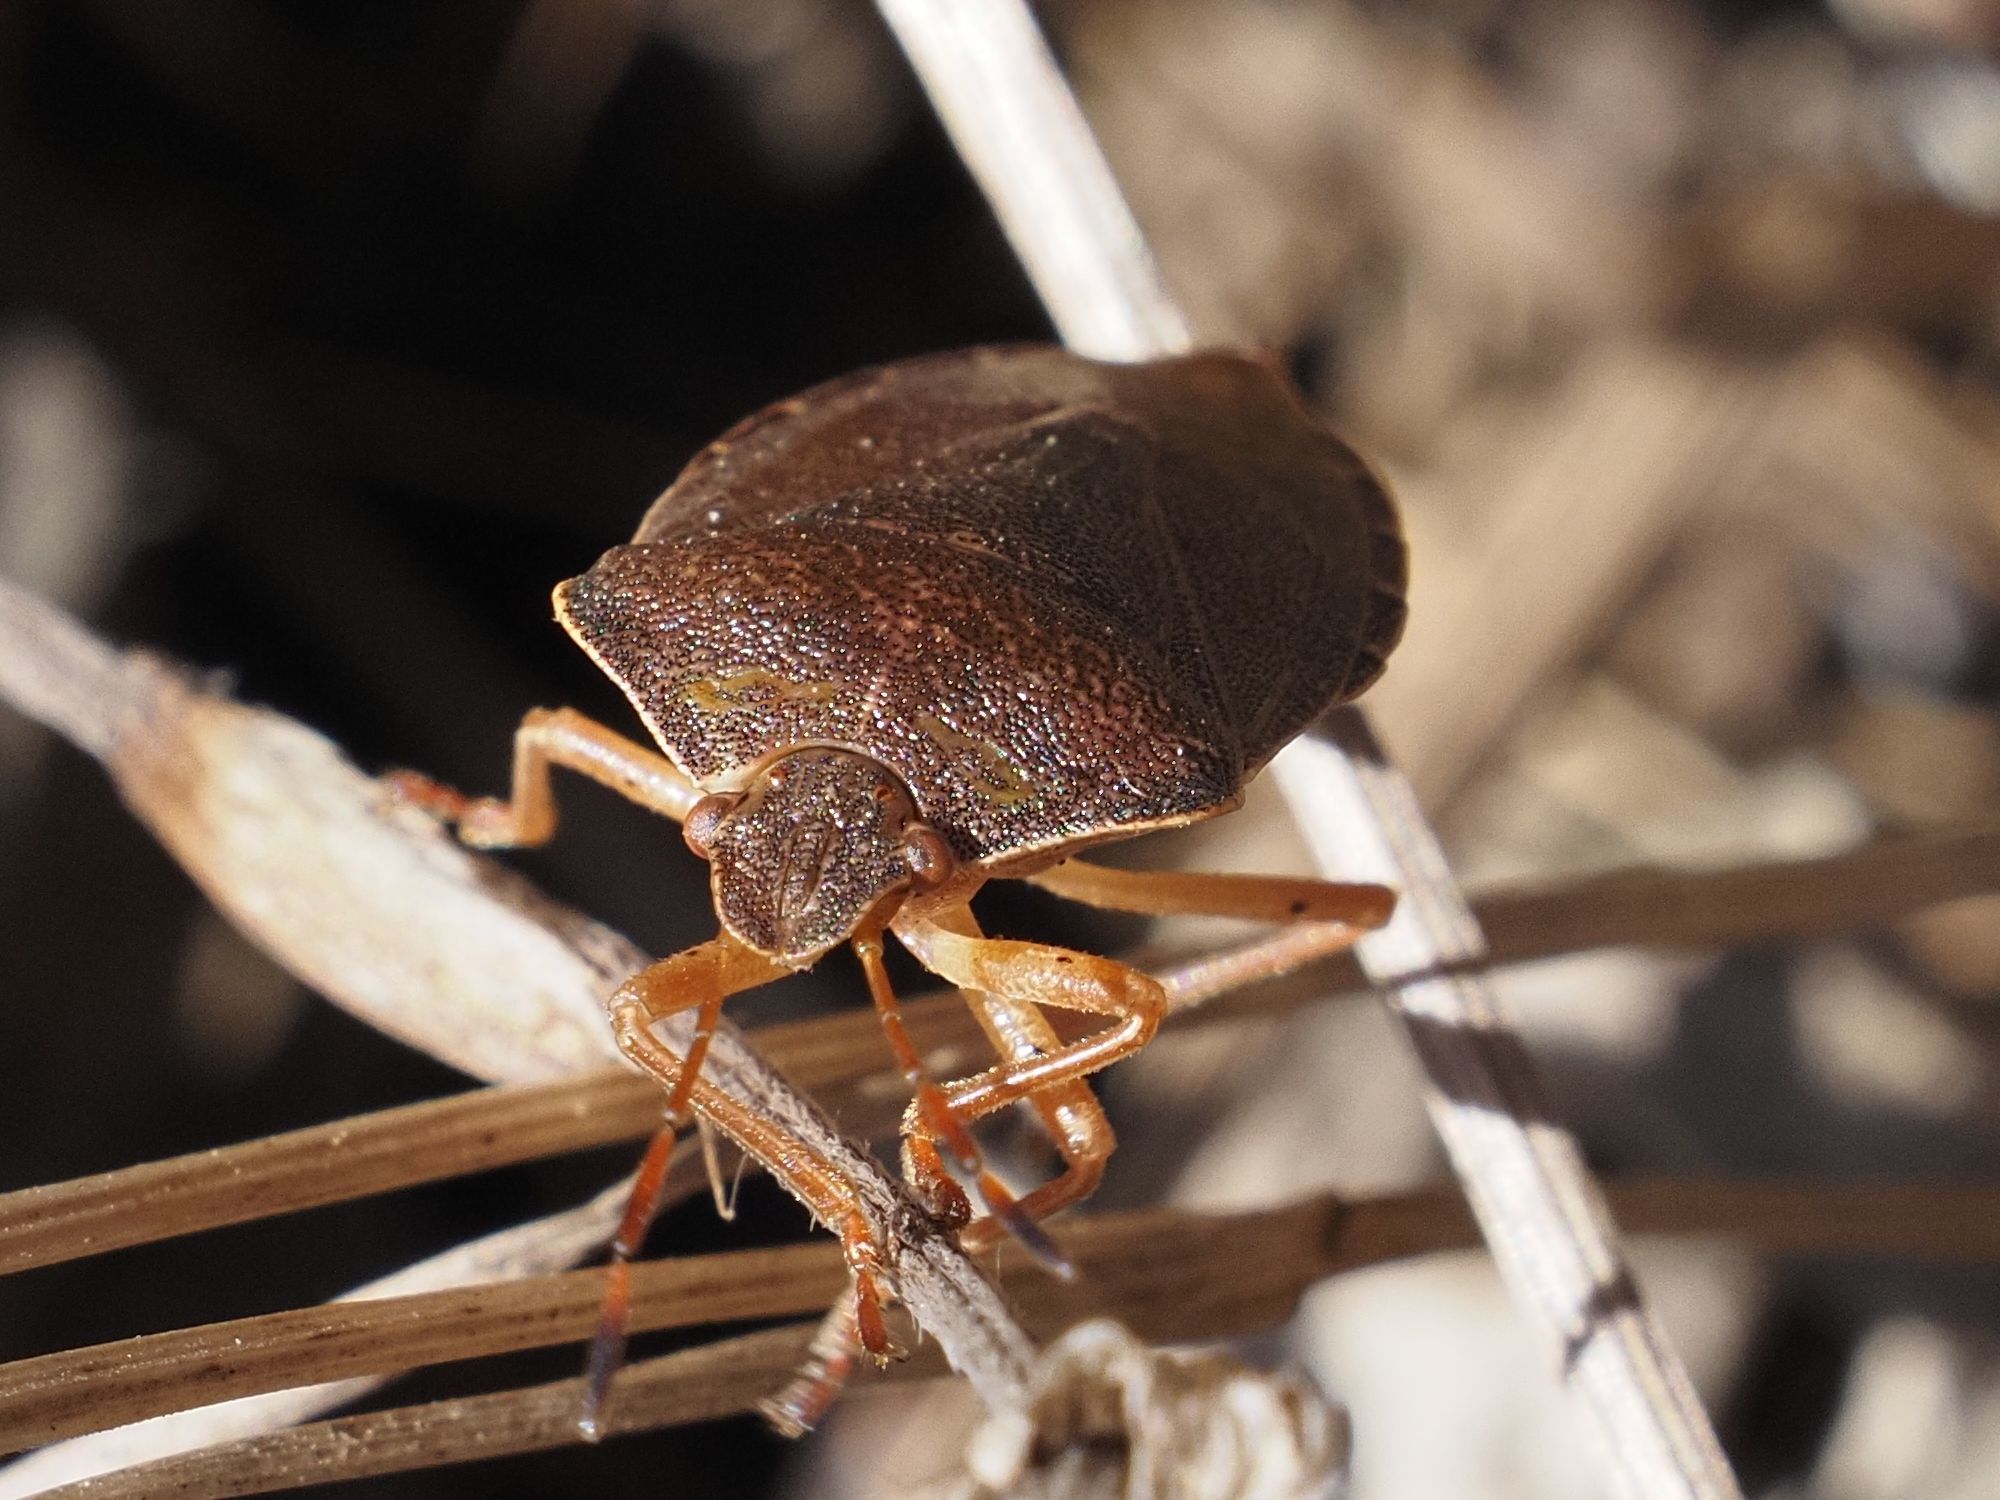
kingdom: Animalia
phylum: Arthropoda
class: Insecta
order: Hemiptera
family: Pentatomidae
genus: Palomena
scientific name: Palomena prasina
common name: Green shieldbug
